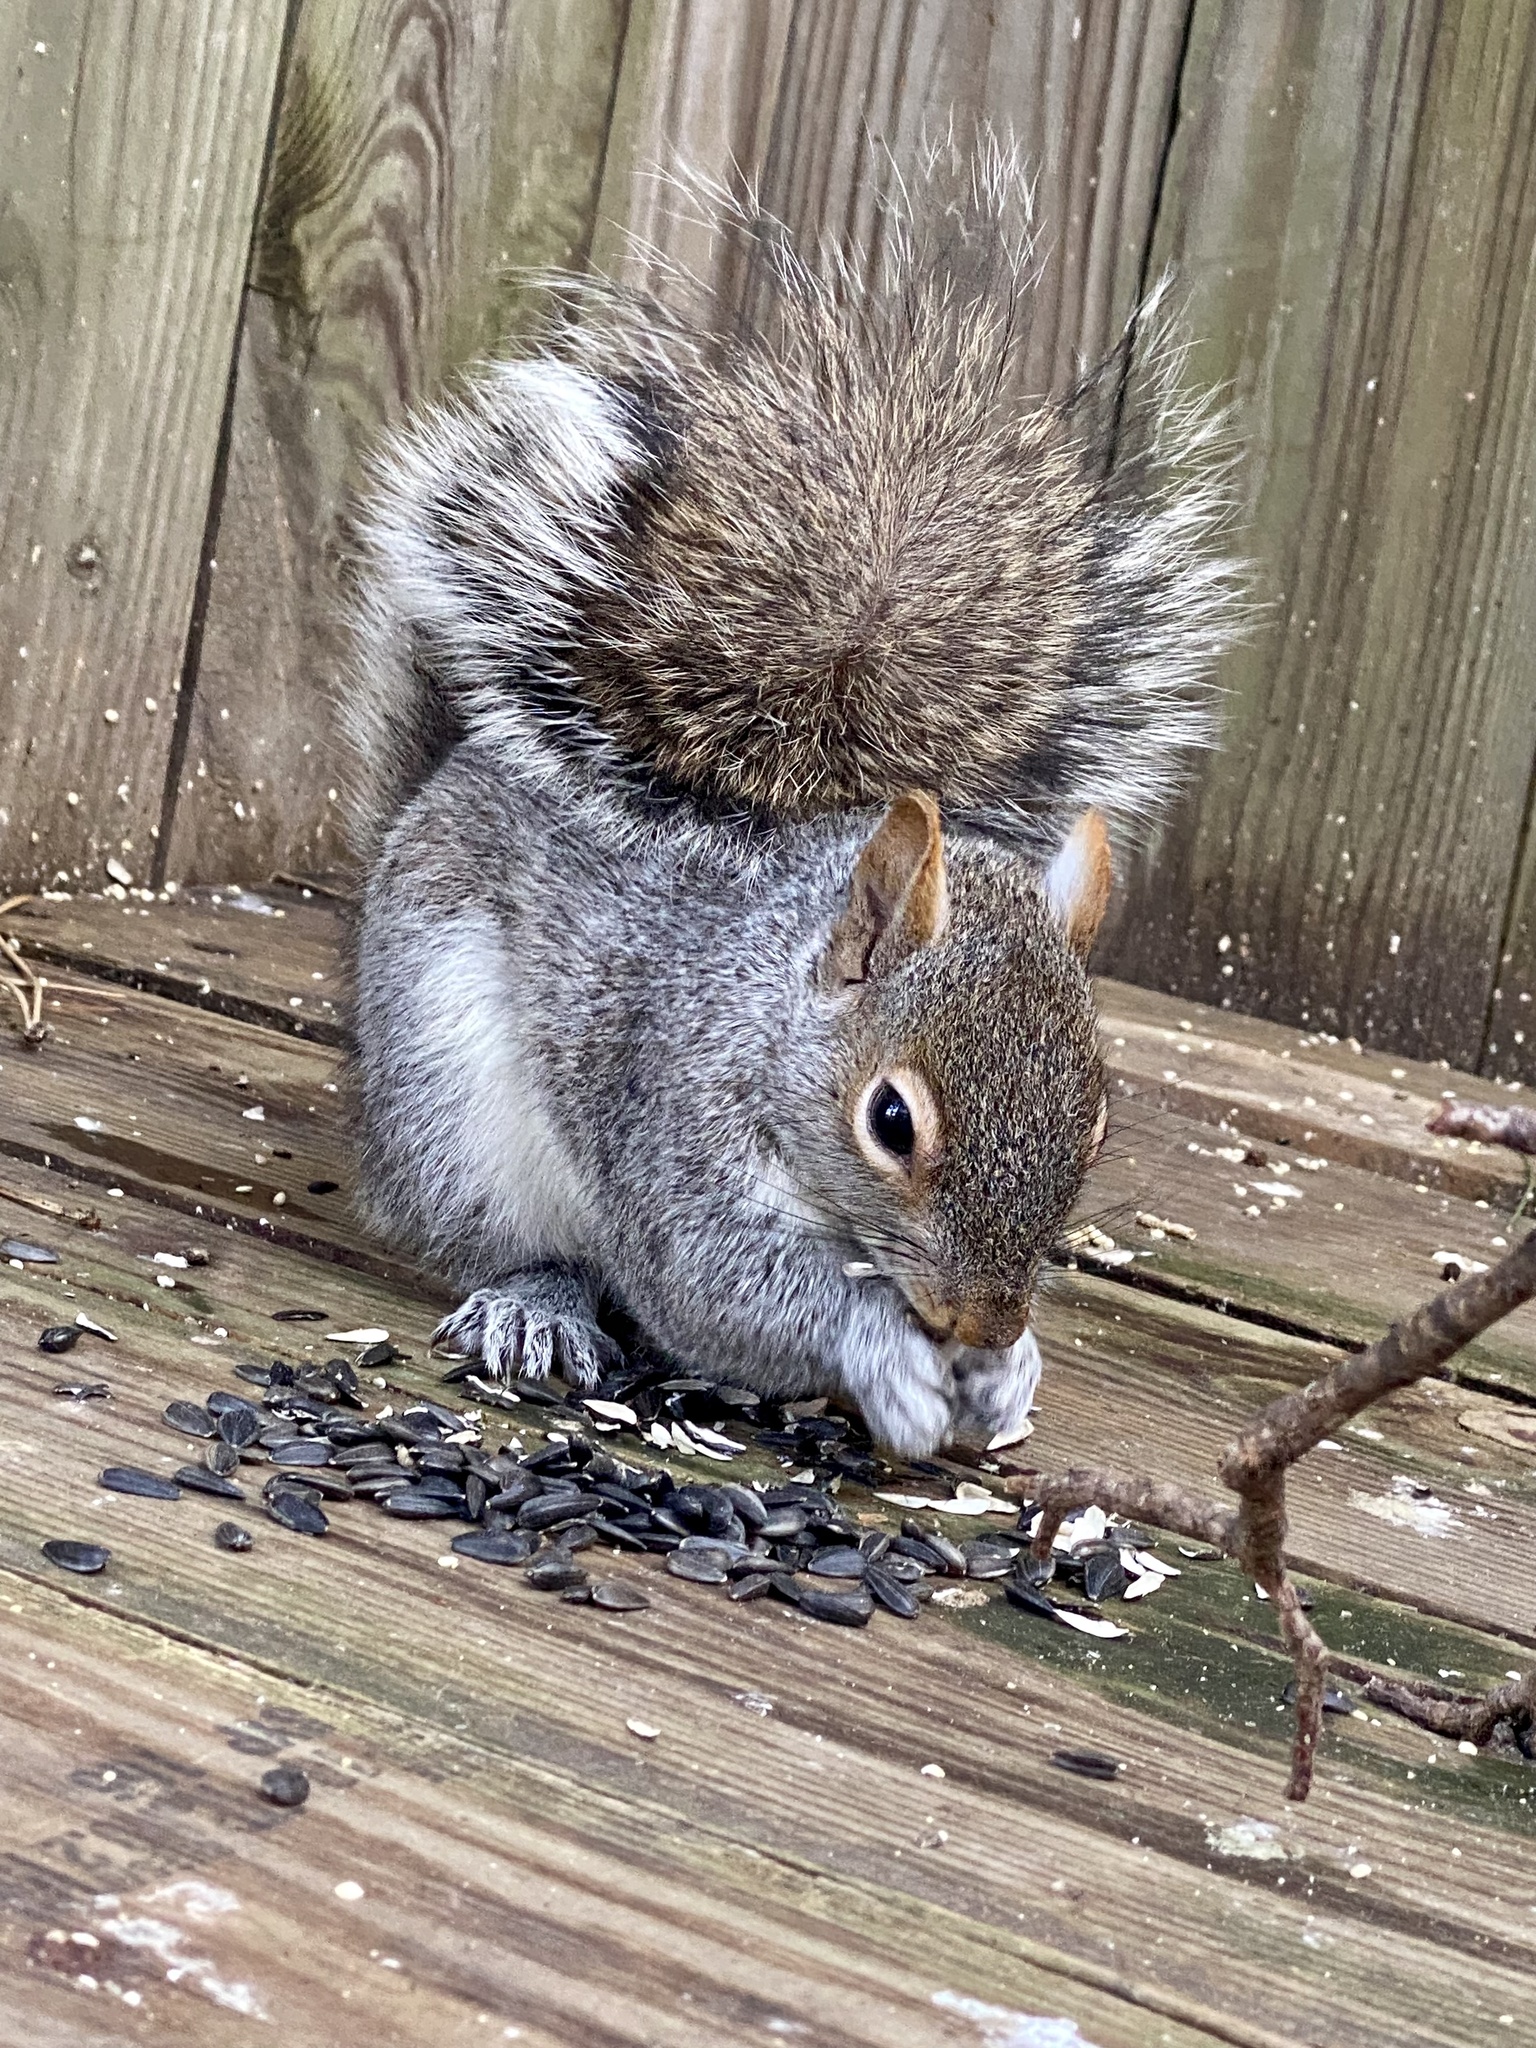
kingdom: Animalia
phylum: Chordata
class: Mammalia
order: Rodentia
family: Sciuridae
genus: Sciurus
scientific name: Sciurus carolinensis
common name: Eastern gray squirrel
